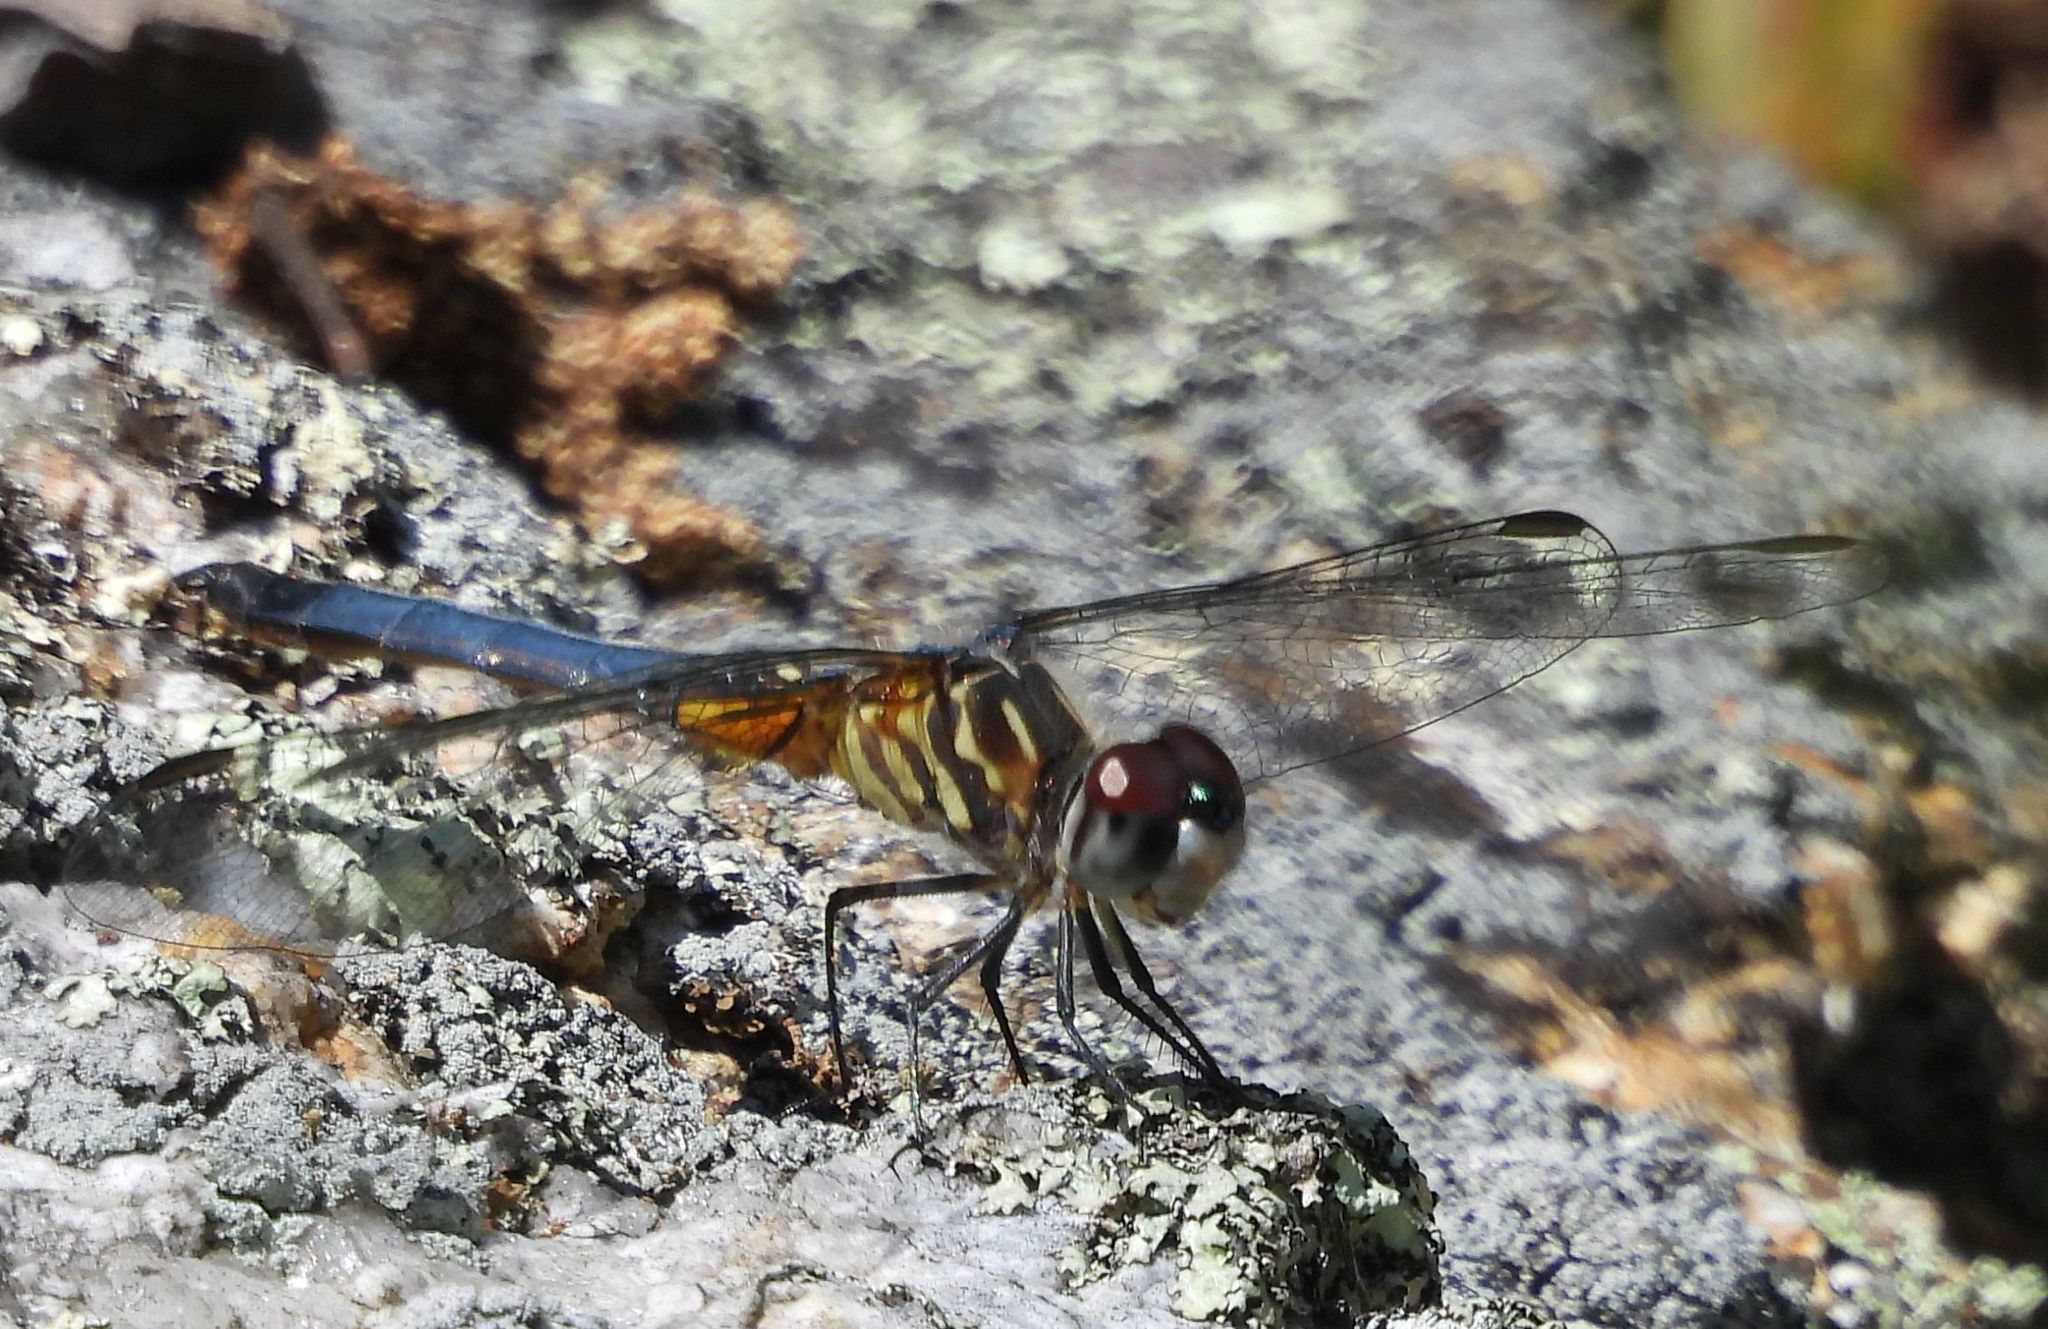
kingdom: Animalia
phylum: Arthropoda
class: Insecta
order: Odonata
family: Libellulidae
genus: Pachydiplax
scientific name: Pachydiplax longipennis
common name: Blue dasher
